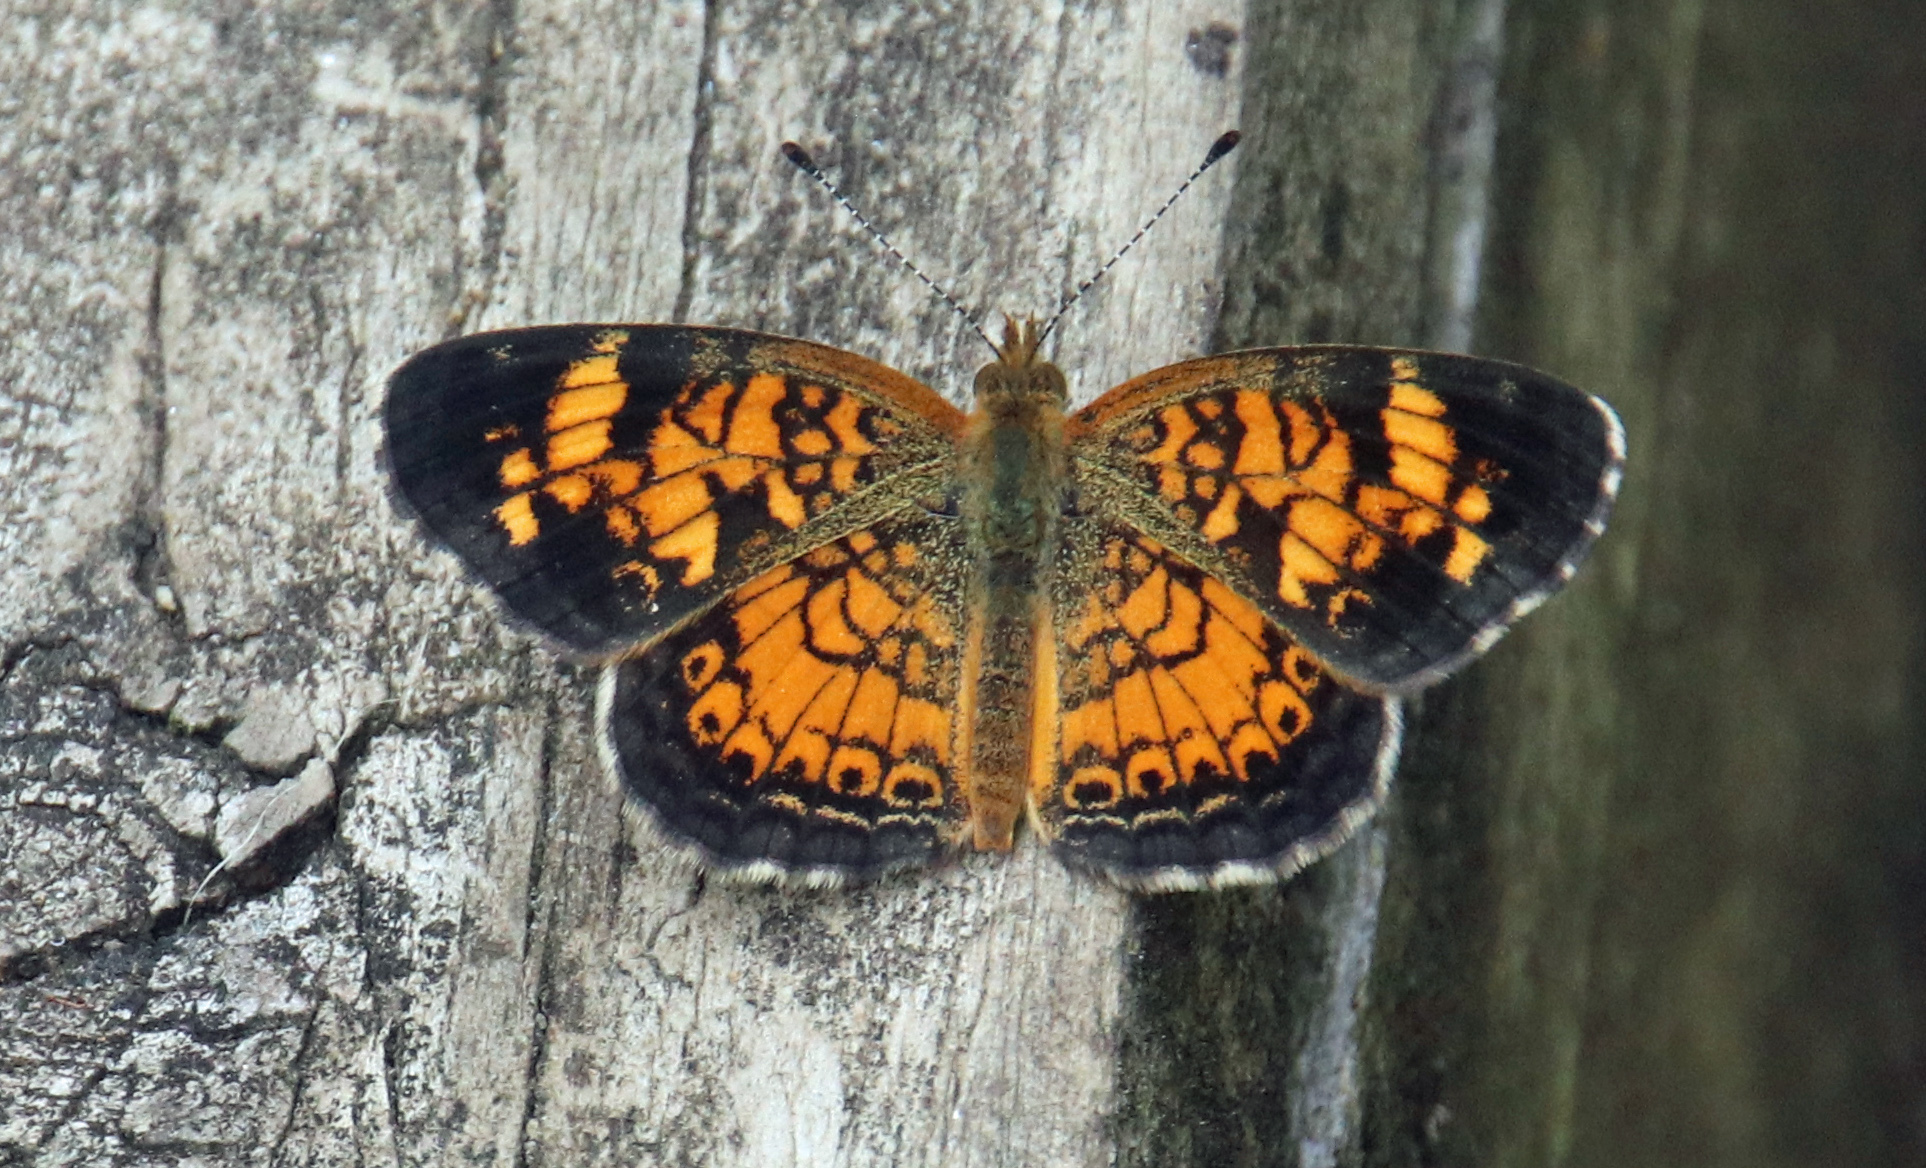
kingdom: Animalia
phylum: Arthropoda
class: Insecta
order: Lepidoptera
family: Nymphalidae
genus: Phyciodes
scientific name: Phyciodes tharos
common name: Pearl crescent
